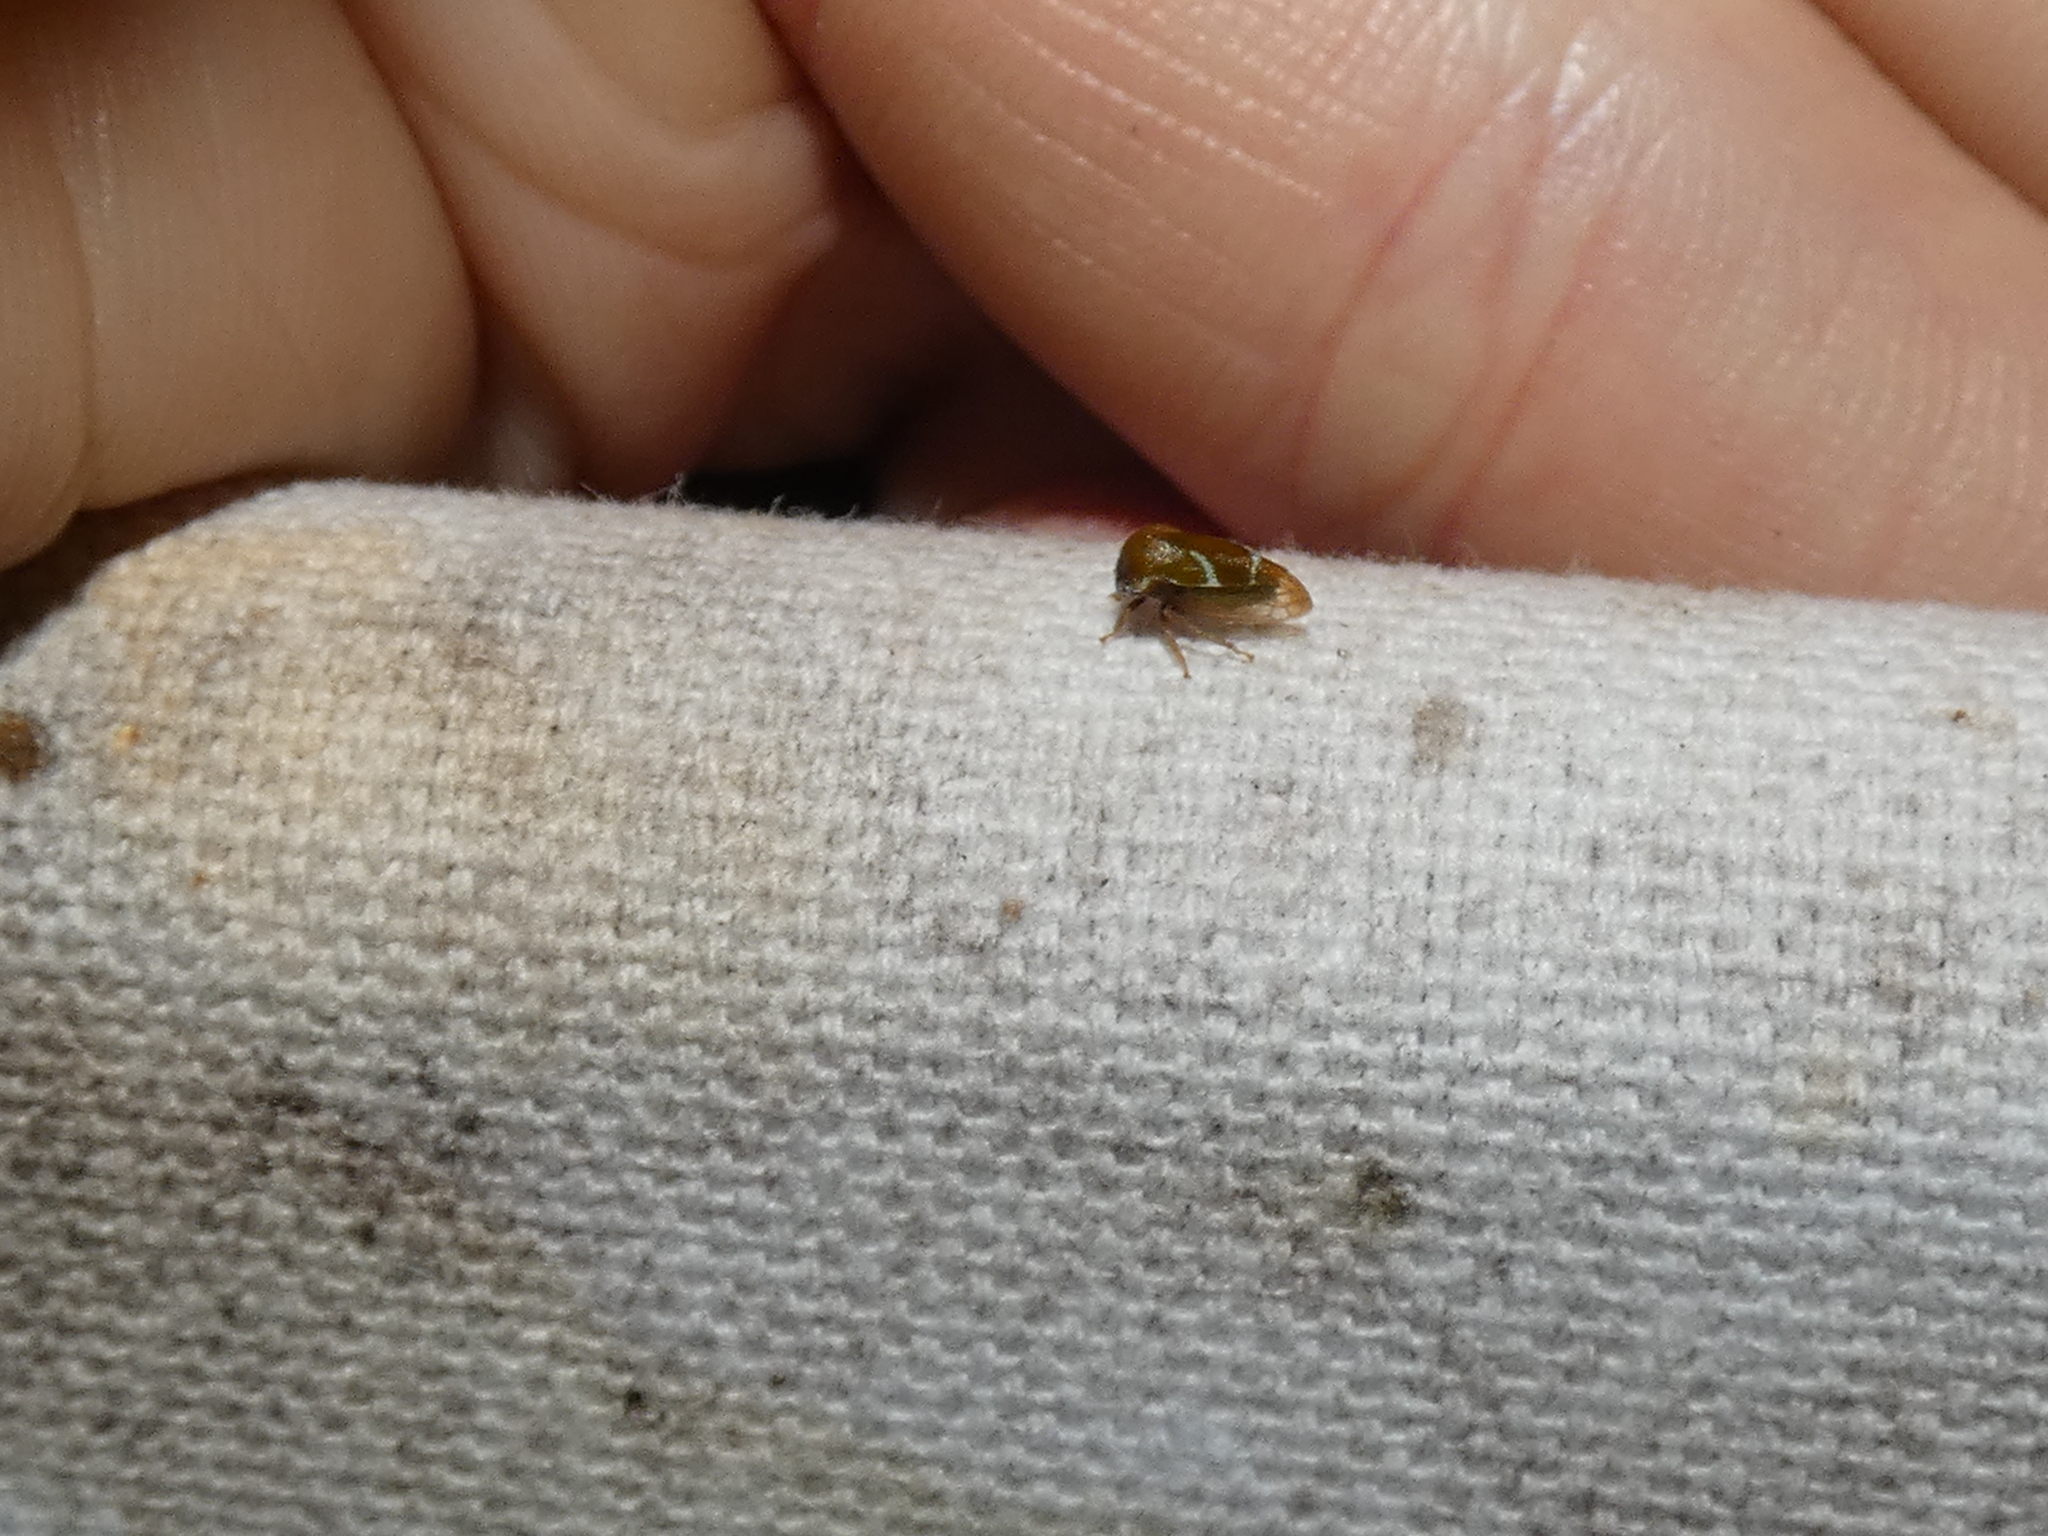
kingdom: Animalia
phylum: Arthropoda
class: Insecta
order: Hemiptera
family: Membracidae
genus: Cyrtolobus
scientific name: Cyrtolobus inermis
